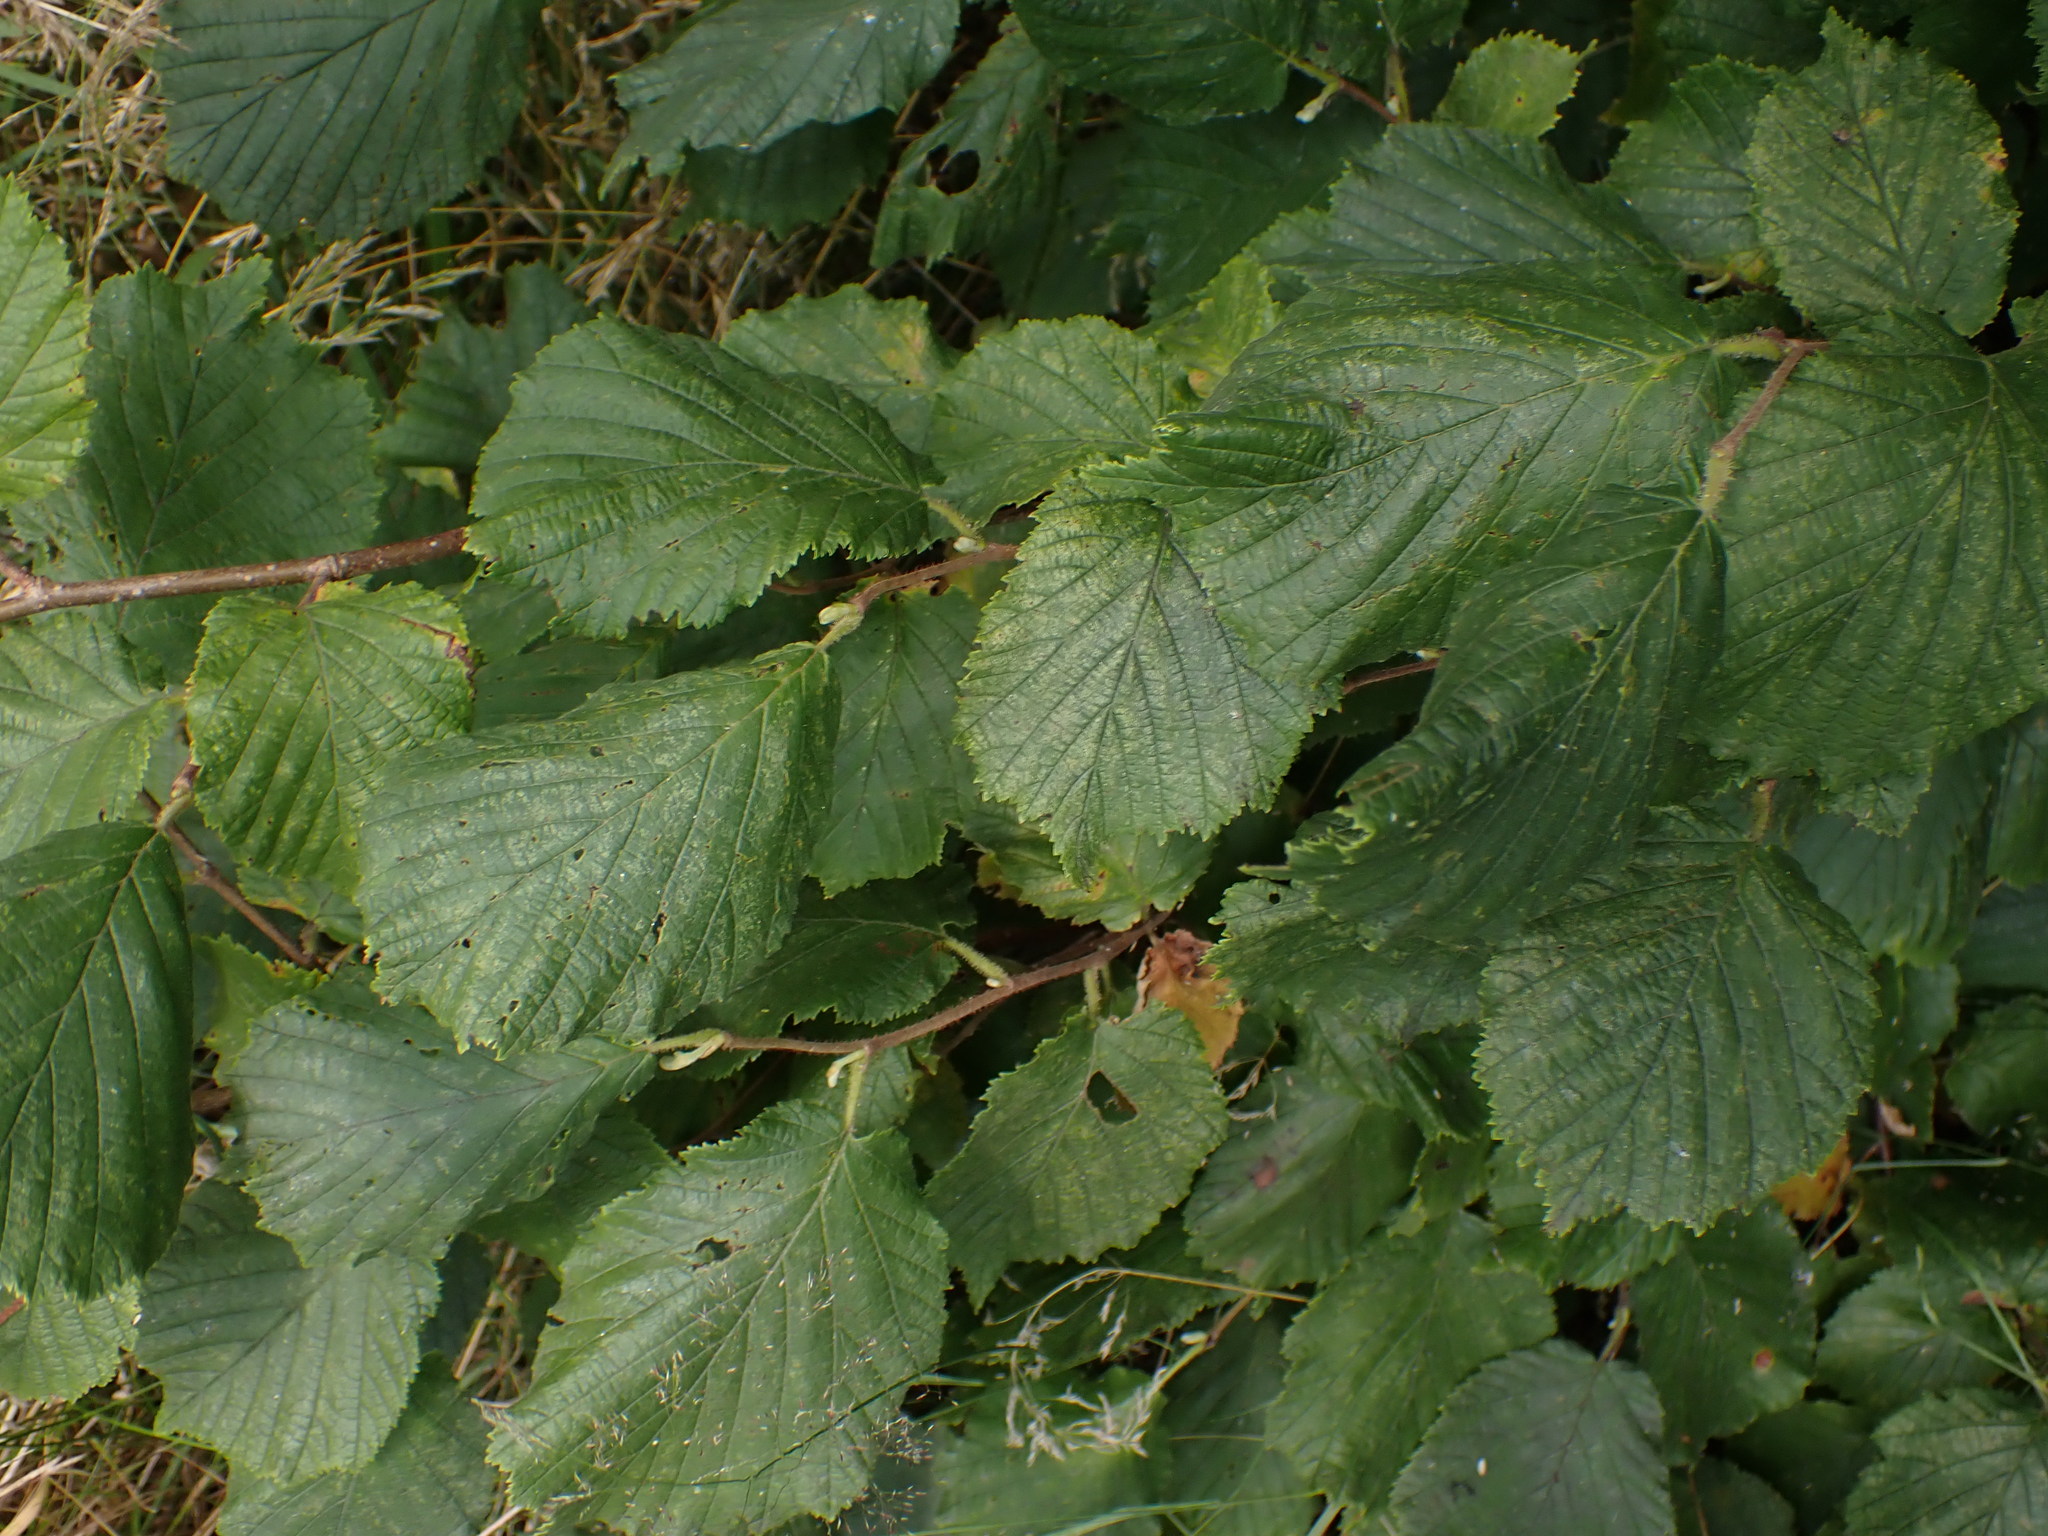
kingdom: Plantae
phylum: Tracheophyta
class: Magnoliopsida
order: Fagales
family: Betulaceae
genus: Corylus
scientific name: Corylus avellana
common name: European hazel
